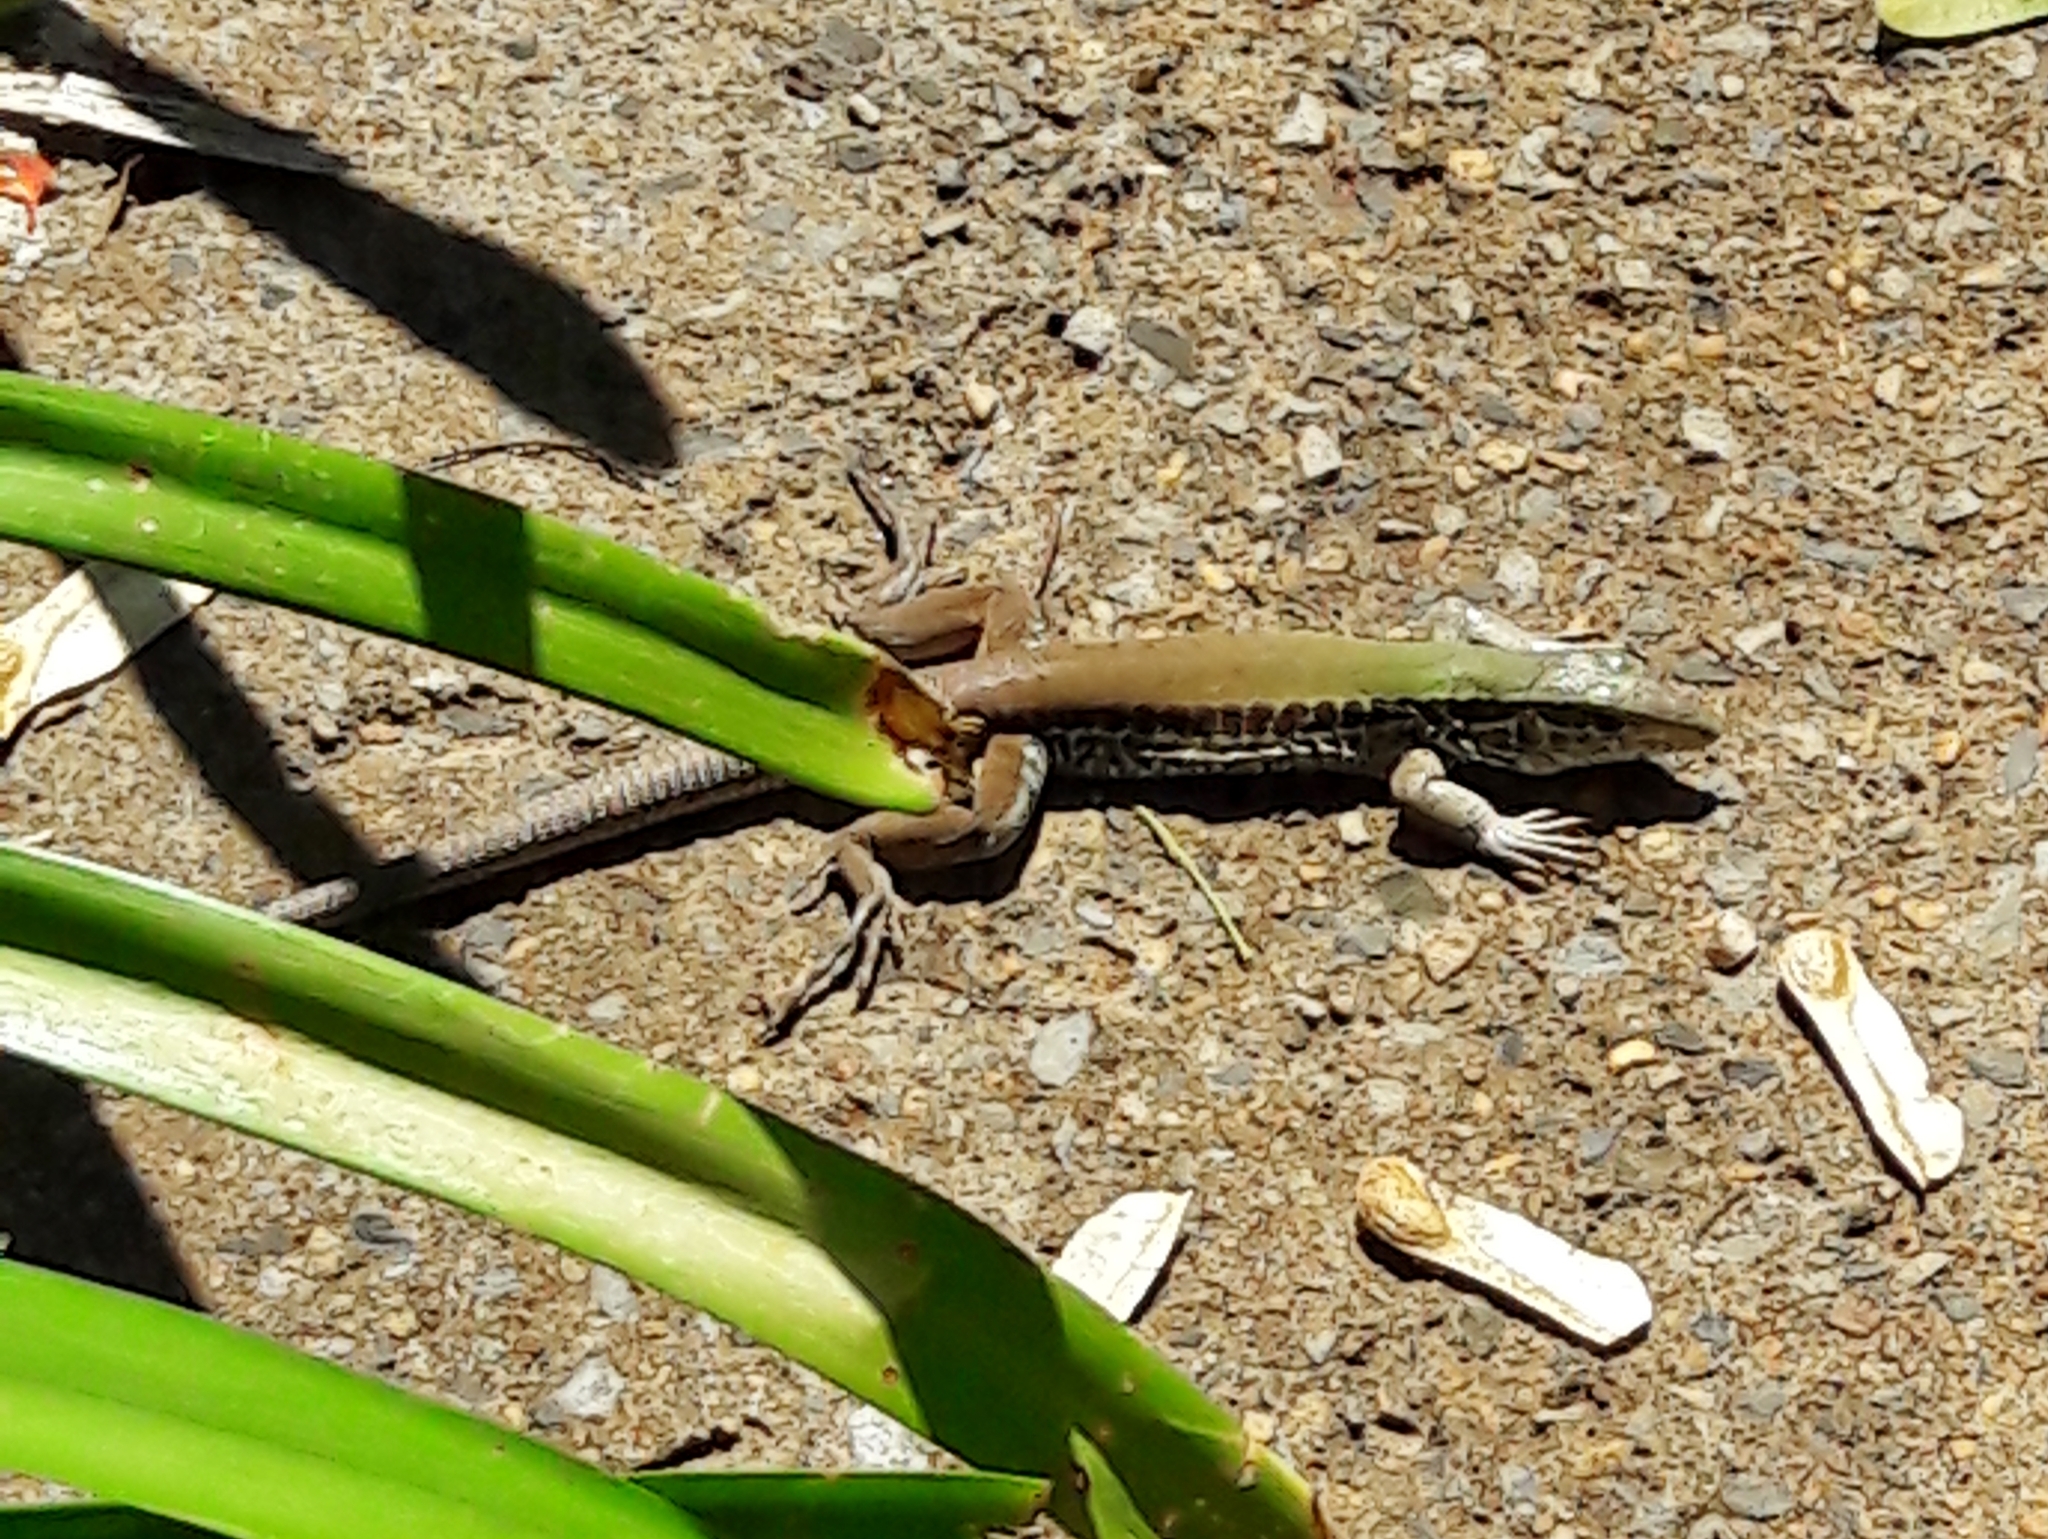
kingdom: Animalia
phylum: Chordata
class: Squamata
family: Teiidae
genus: Ameiva
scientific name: Ameiva ameiva
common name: Giant ameiva
